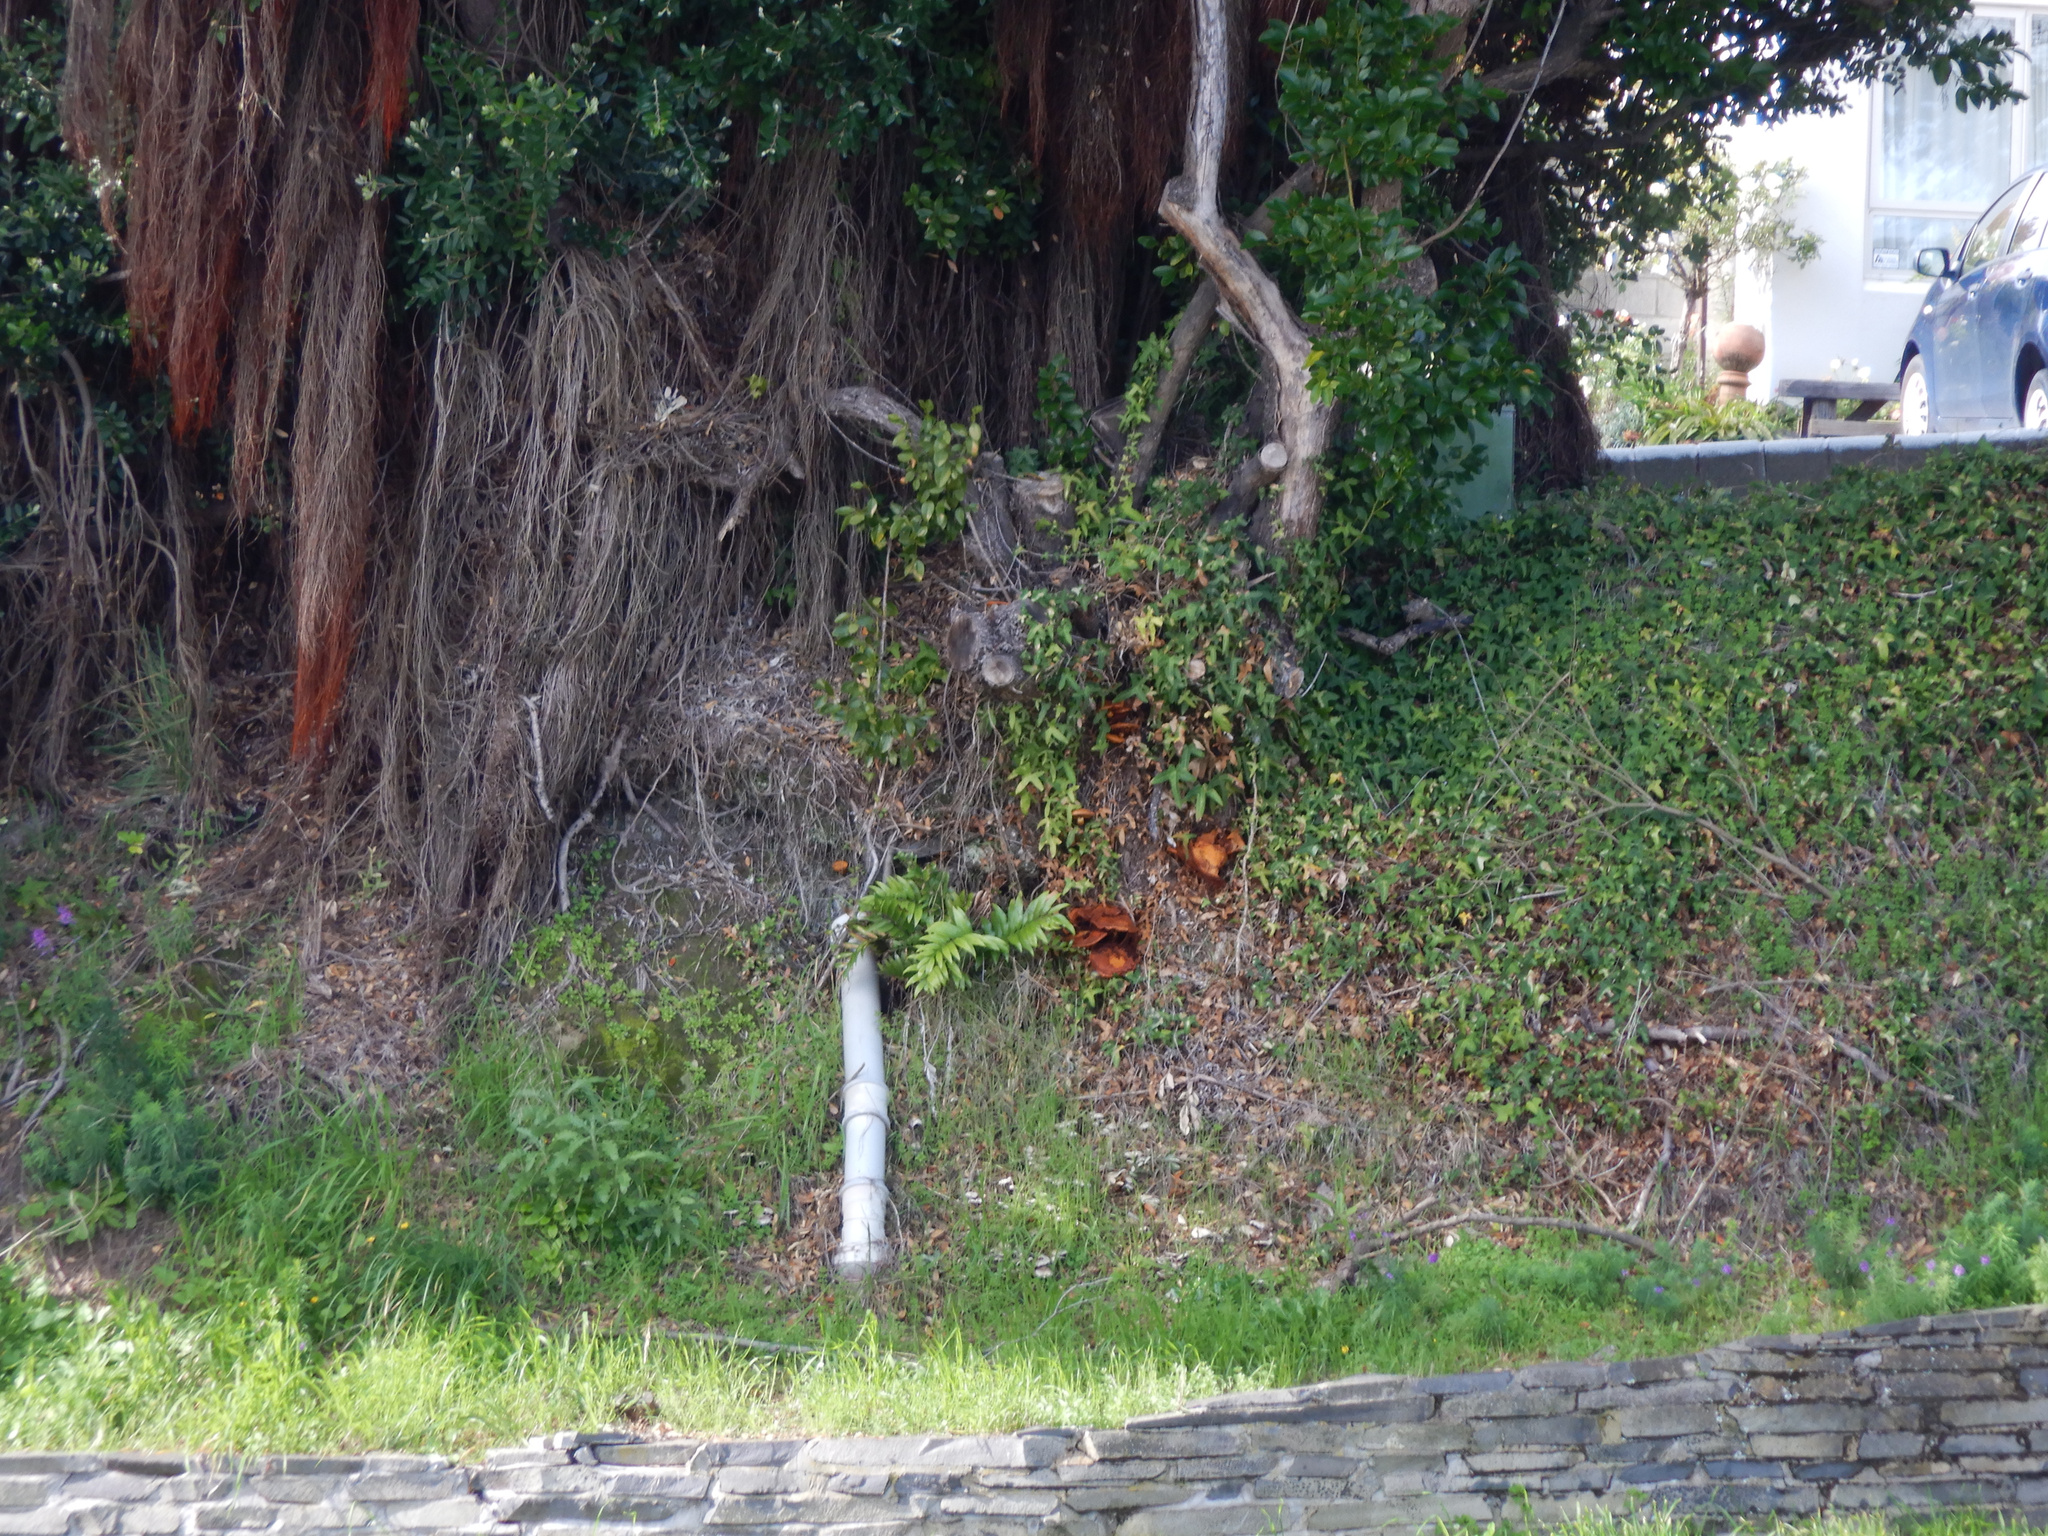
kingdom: Plantae
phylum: Tracheophyta
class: Polypodiopsida
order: Polypodiales
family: Aspleniaceae
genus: Asplenium
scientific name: Asplenium oblongifolium
